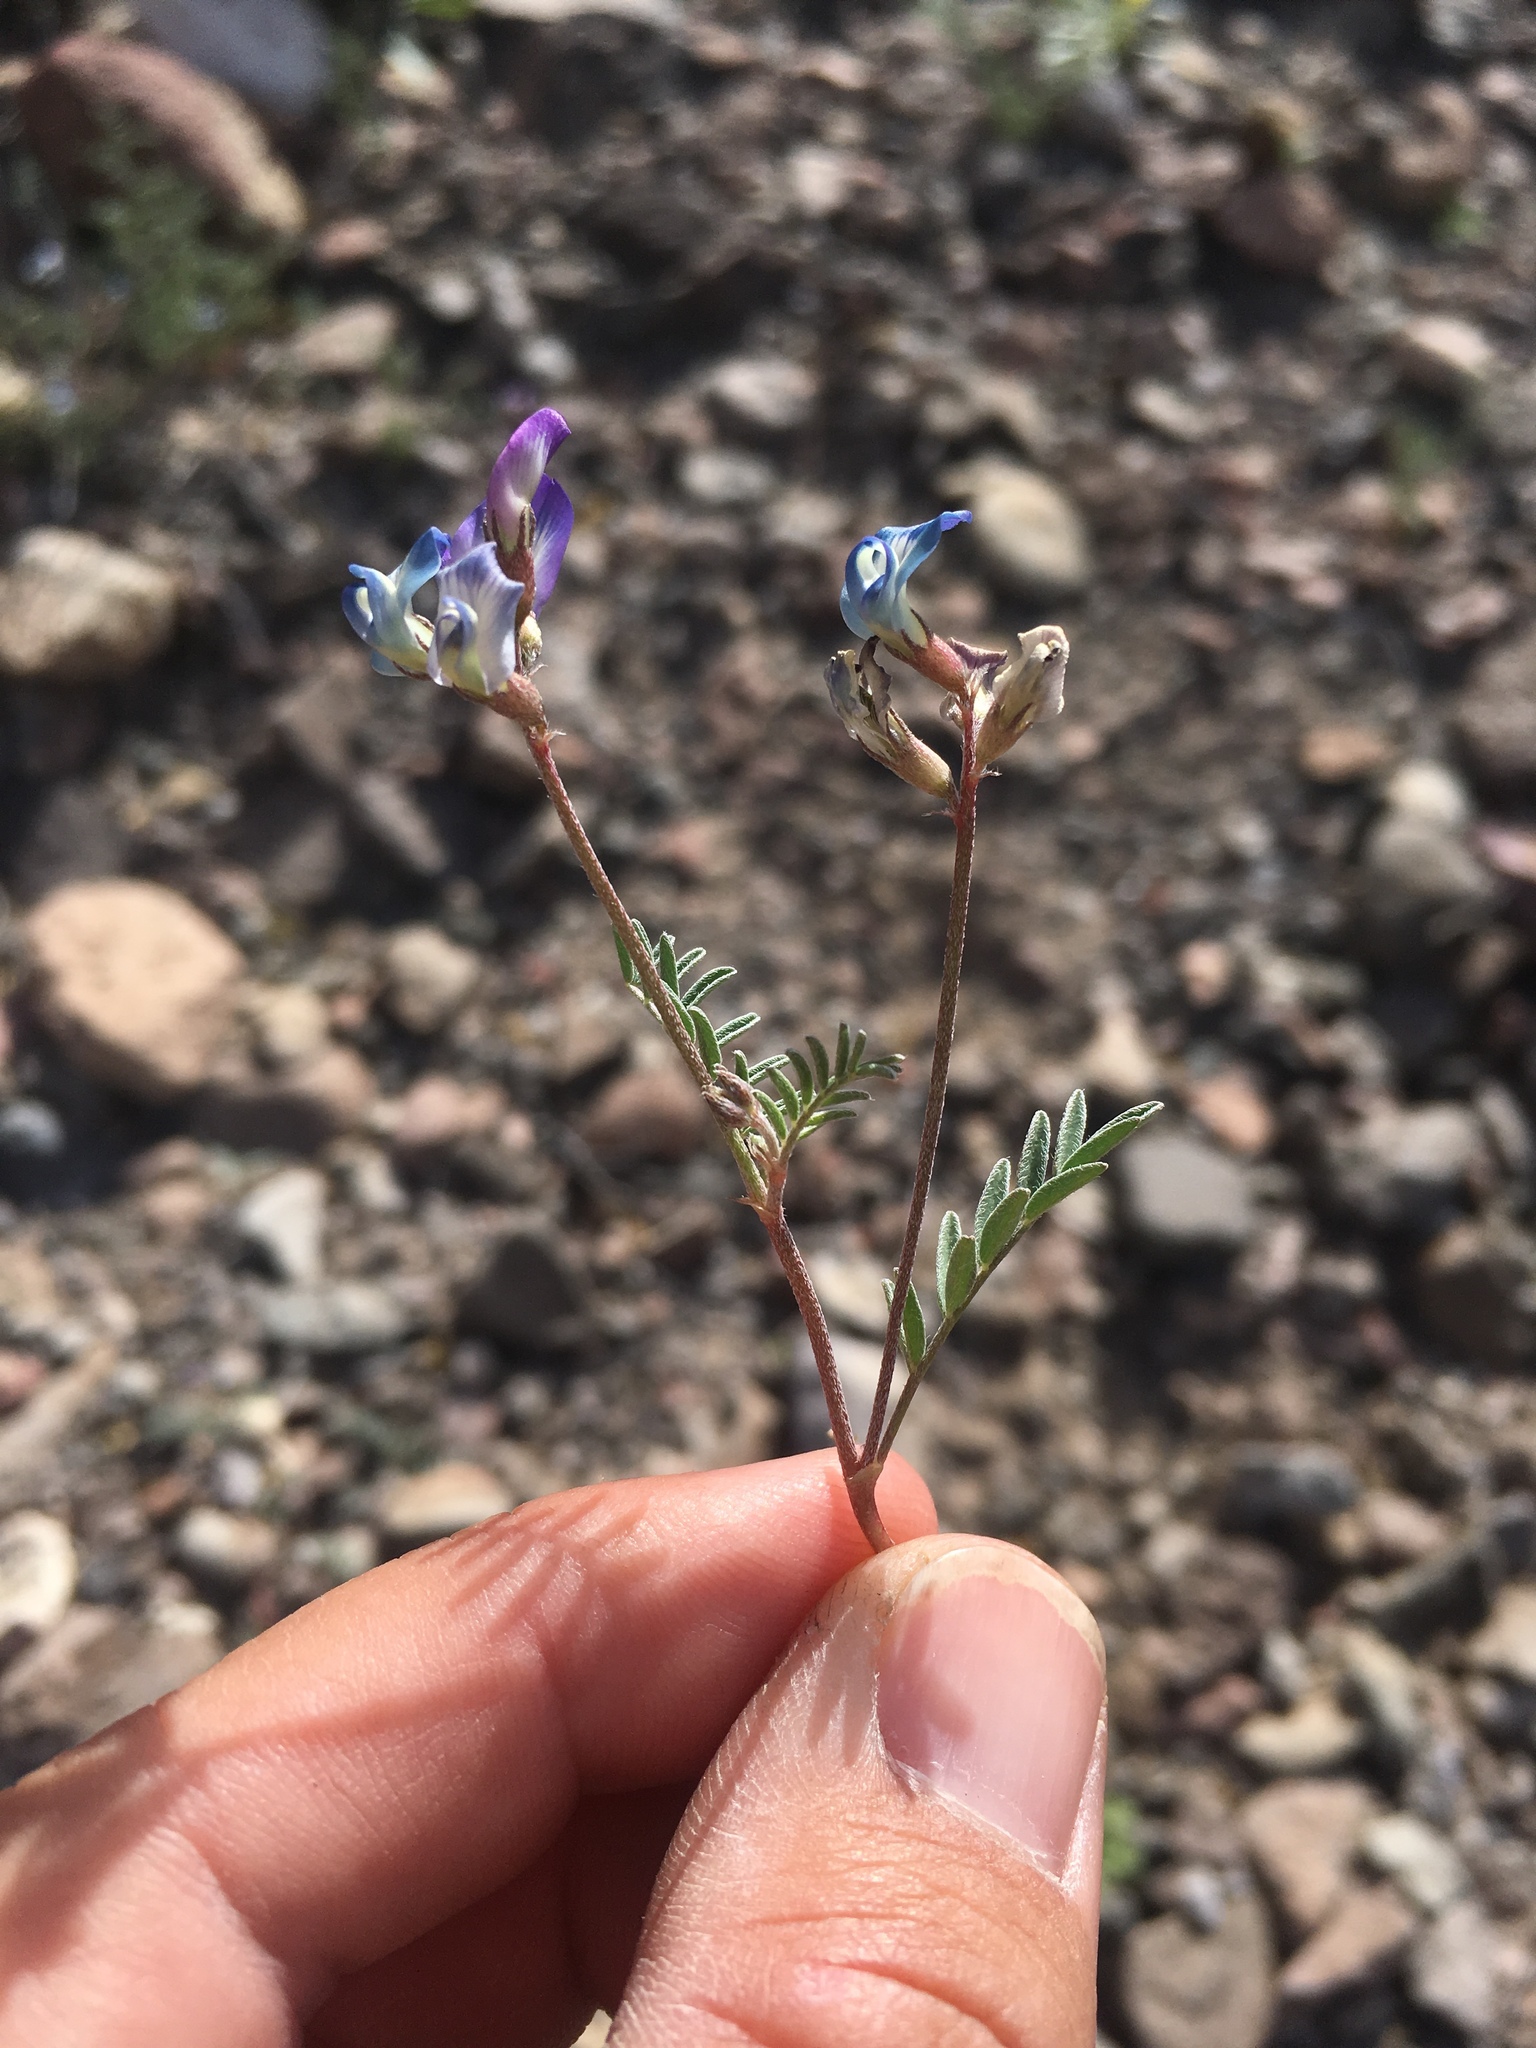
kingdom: Plantae
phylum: Tracheophyta
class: Magnoliopsida
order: Fabales
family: Fabaceae
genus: Astragalus
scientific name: Astragalus nuttallianus
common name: Smallflowered milkvetch
